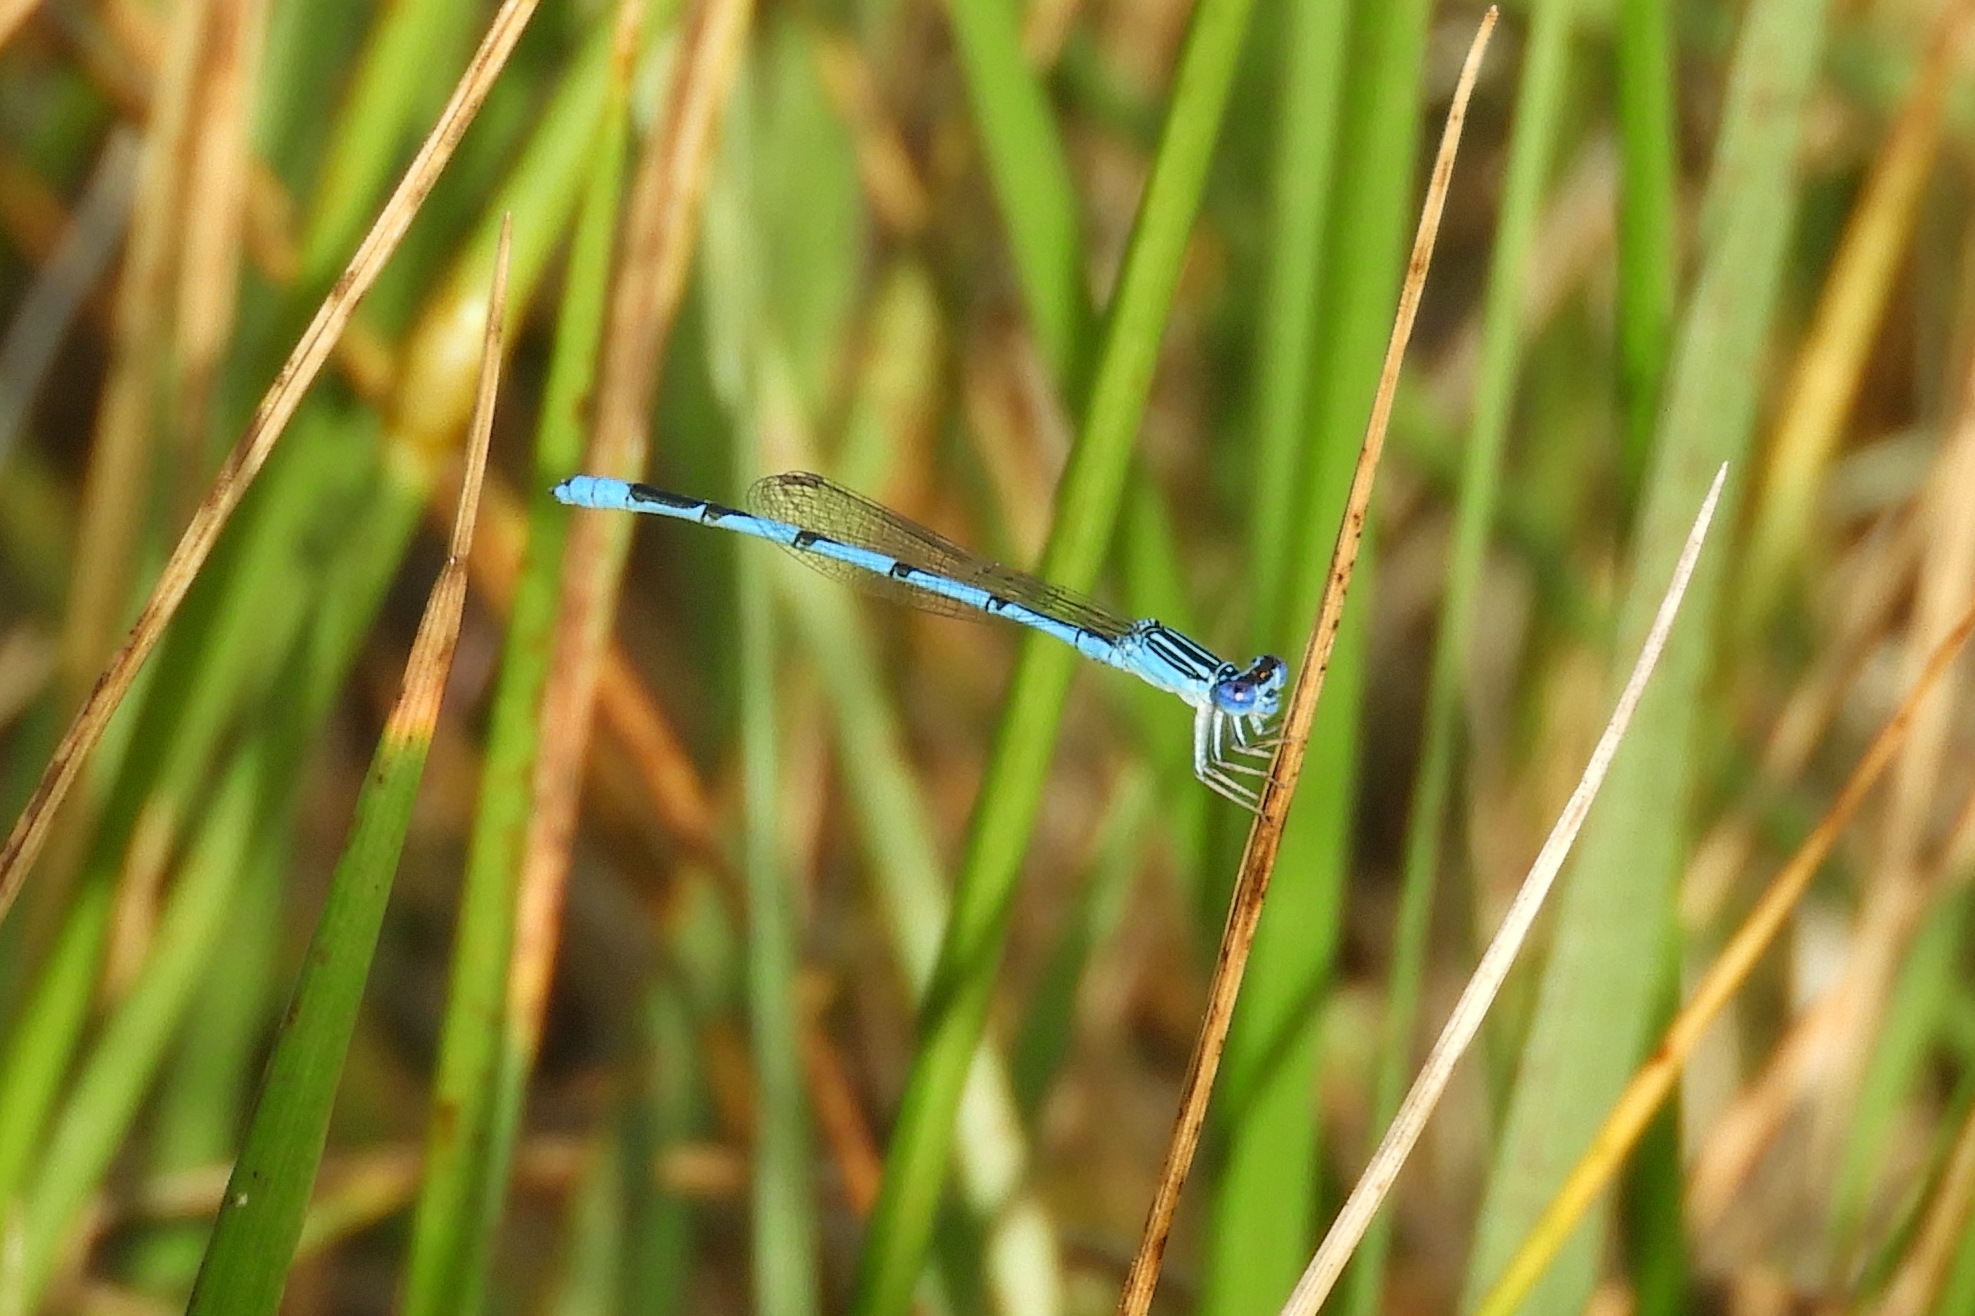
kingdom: Animalia
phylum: Arthropoda
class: Insecta
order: Odonata
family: Coenagrionidae
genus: Enallagma
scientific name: Enallagma basidens
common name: Double-striped bluet
